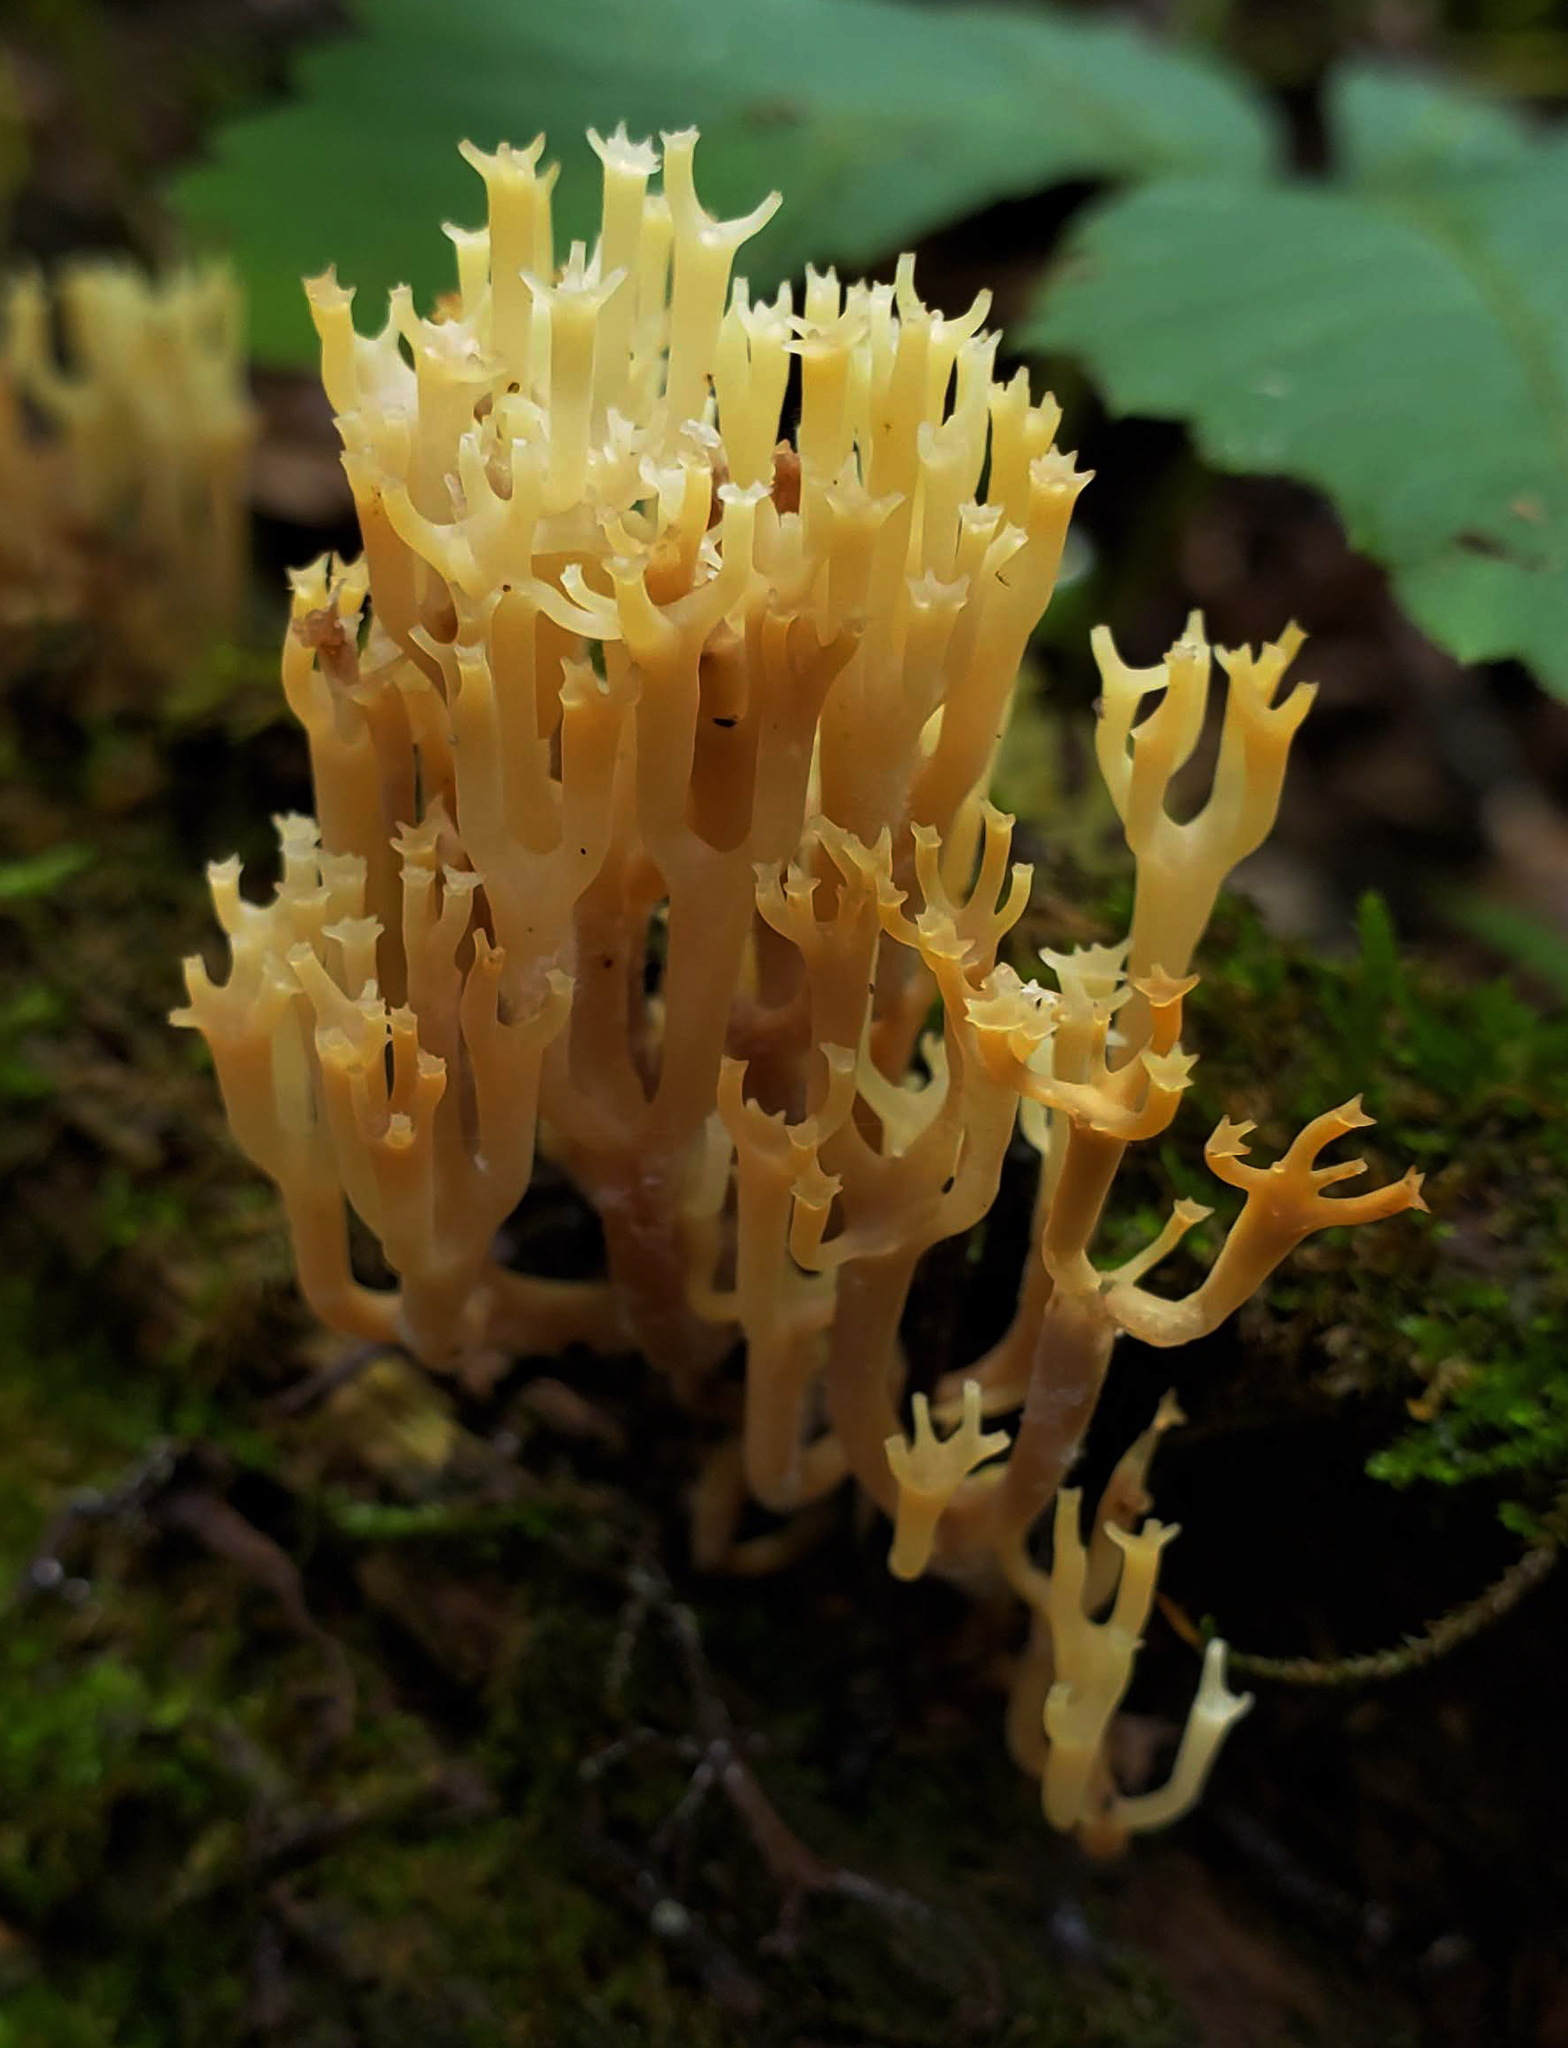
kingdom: Fungi
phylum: Basidiomycota
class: Agaricomycetes
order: Russulales
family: Auriscalpiaceae
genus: Artomyces
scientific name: Artomyces pyxidatus
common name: Crown-tipped coral fungus
